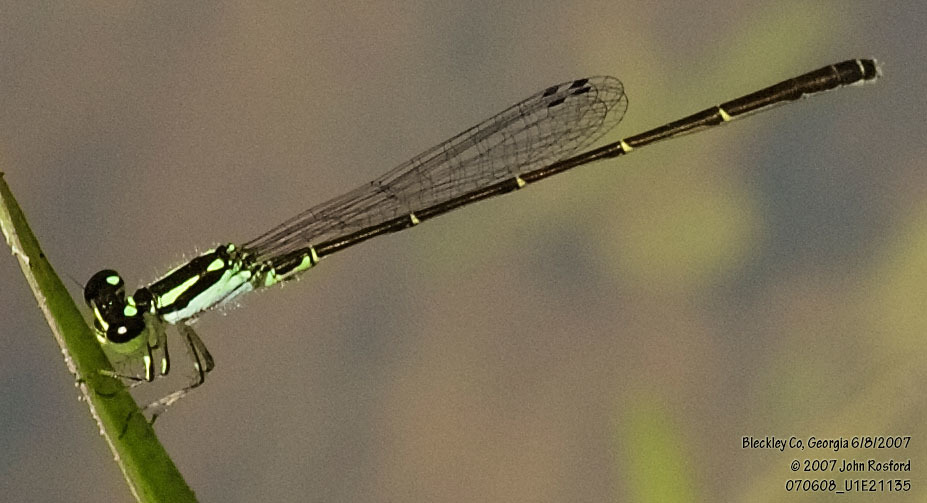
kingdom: Animalia
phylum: Arthropoda
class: Insecta
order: Odonata
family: Coenagrionidae
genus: Ischnura
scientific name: Ischnura posita
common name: Fragile forktail
